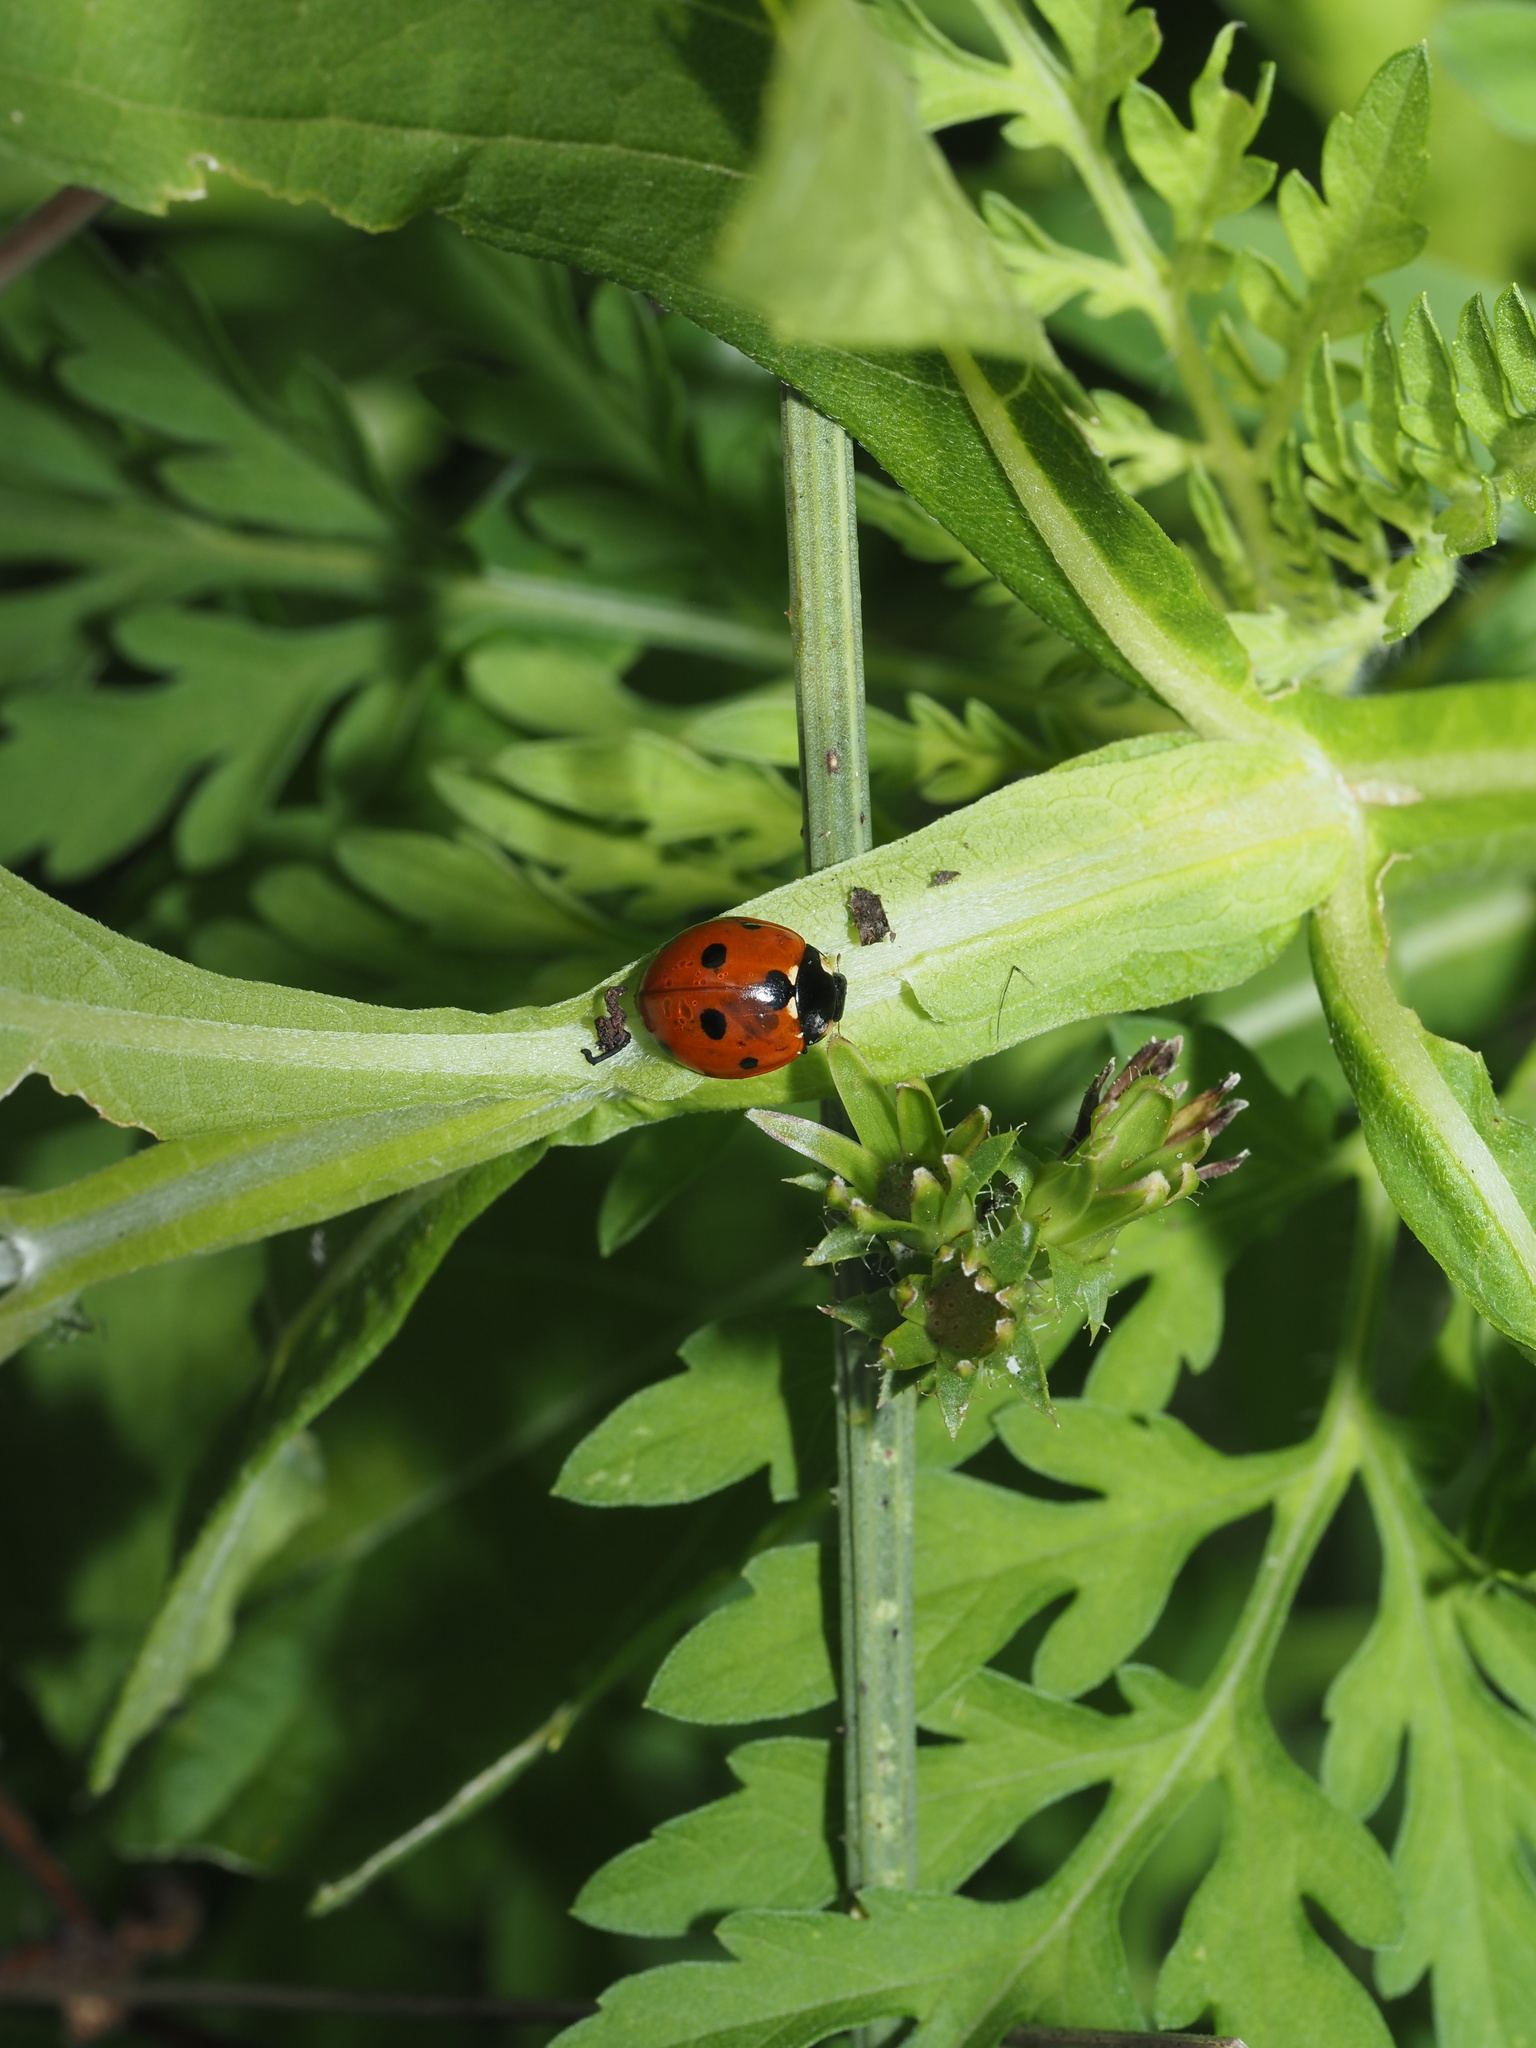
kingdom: Animalia
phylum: Arthropoda
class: Insecta
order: Coleoptera
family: Coccinellidae
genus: Coccinella
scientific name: Coccinella septempunctata
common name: Sevenspotted lady beetle
